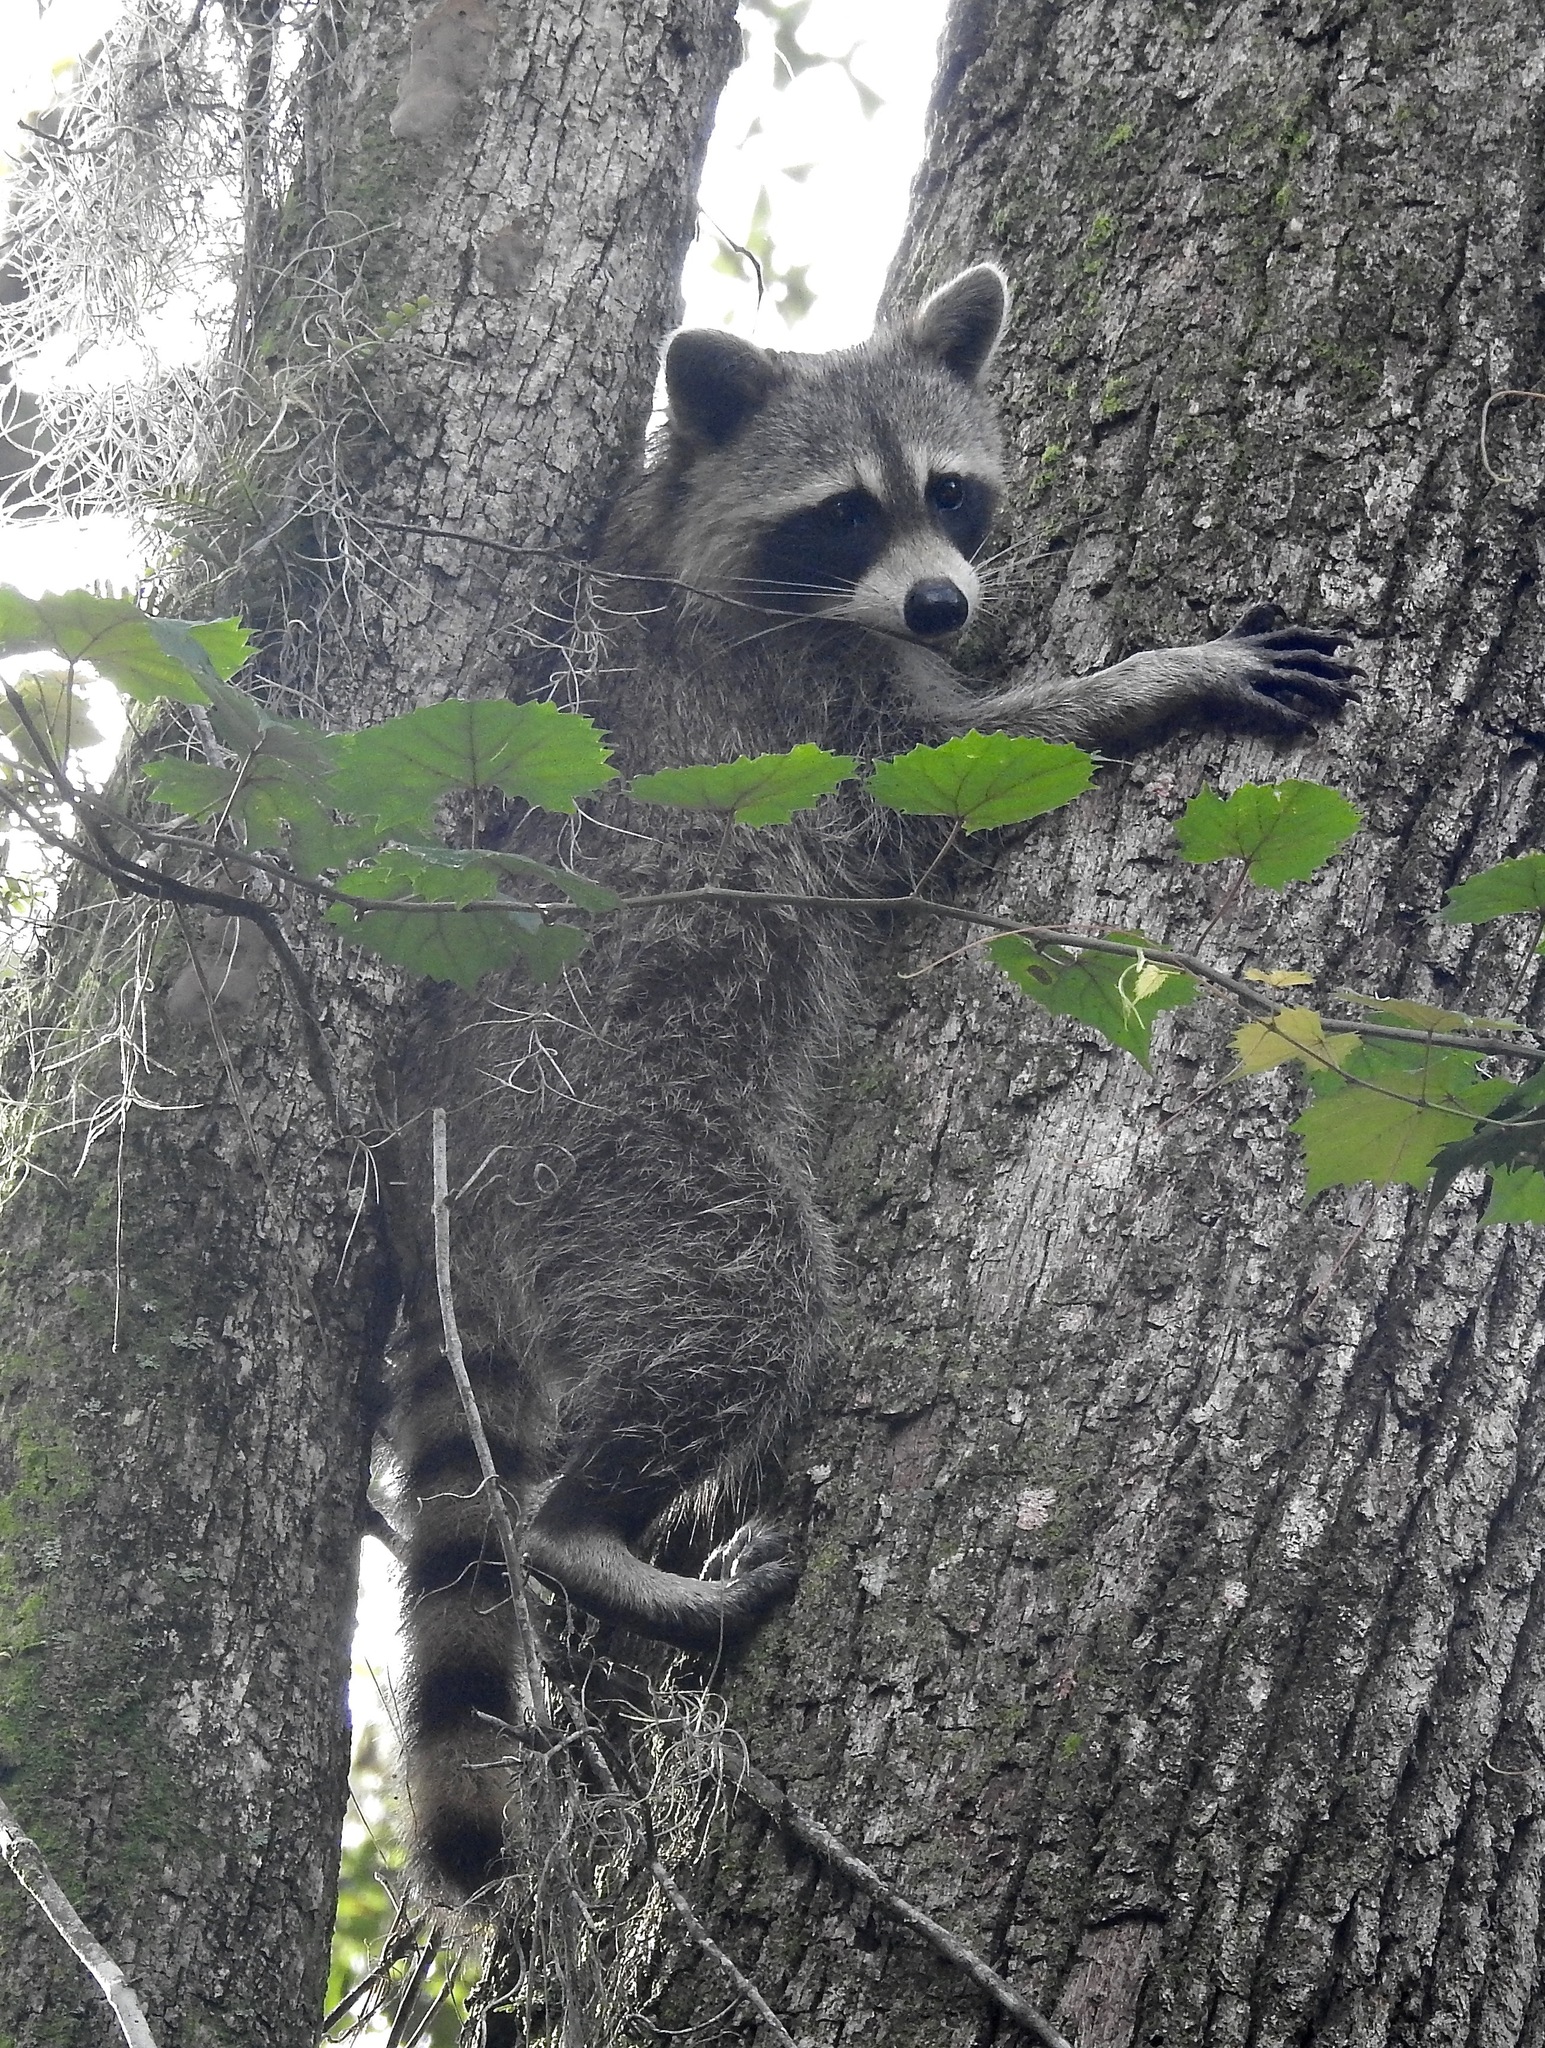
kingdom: Animalia
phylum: Chordata
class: Mammalia
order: Carnivora
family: Procyonidae
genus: Procyon
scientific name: Procyon lotor
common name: Raccoon
